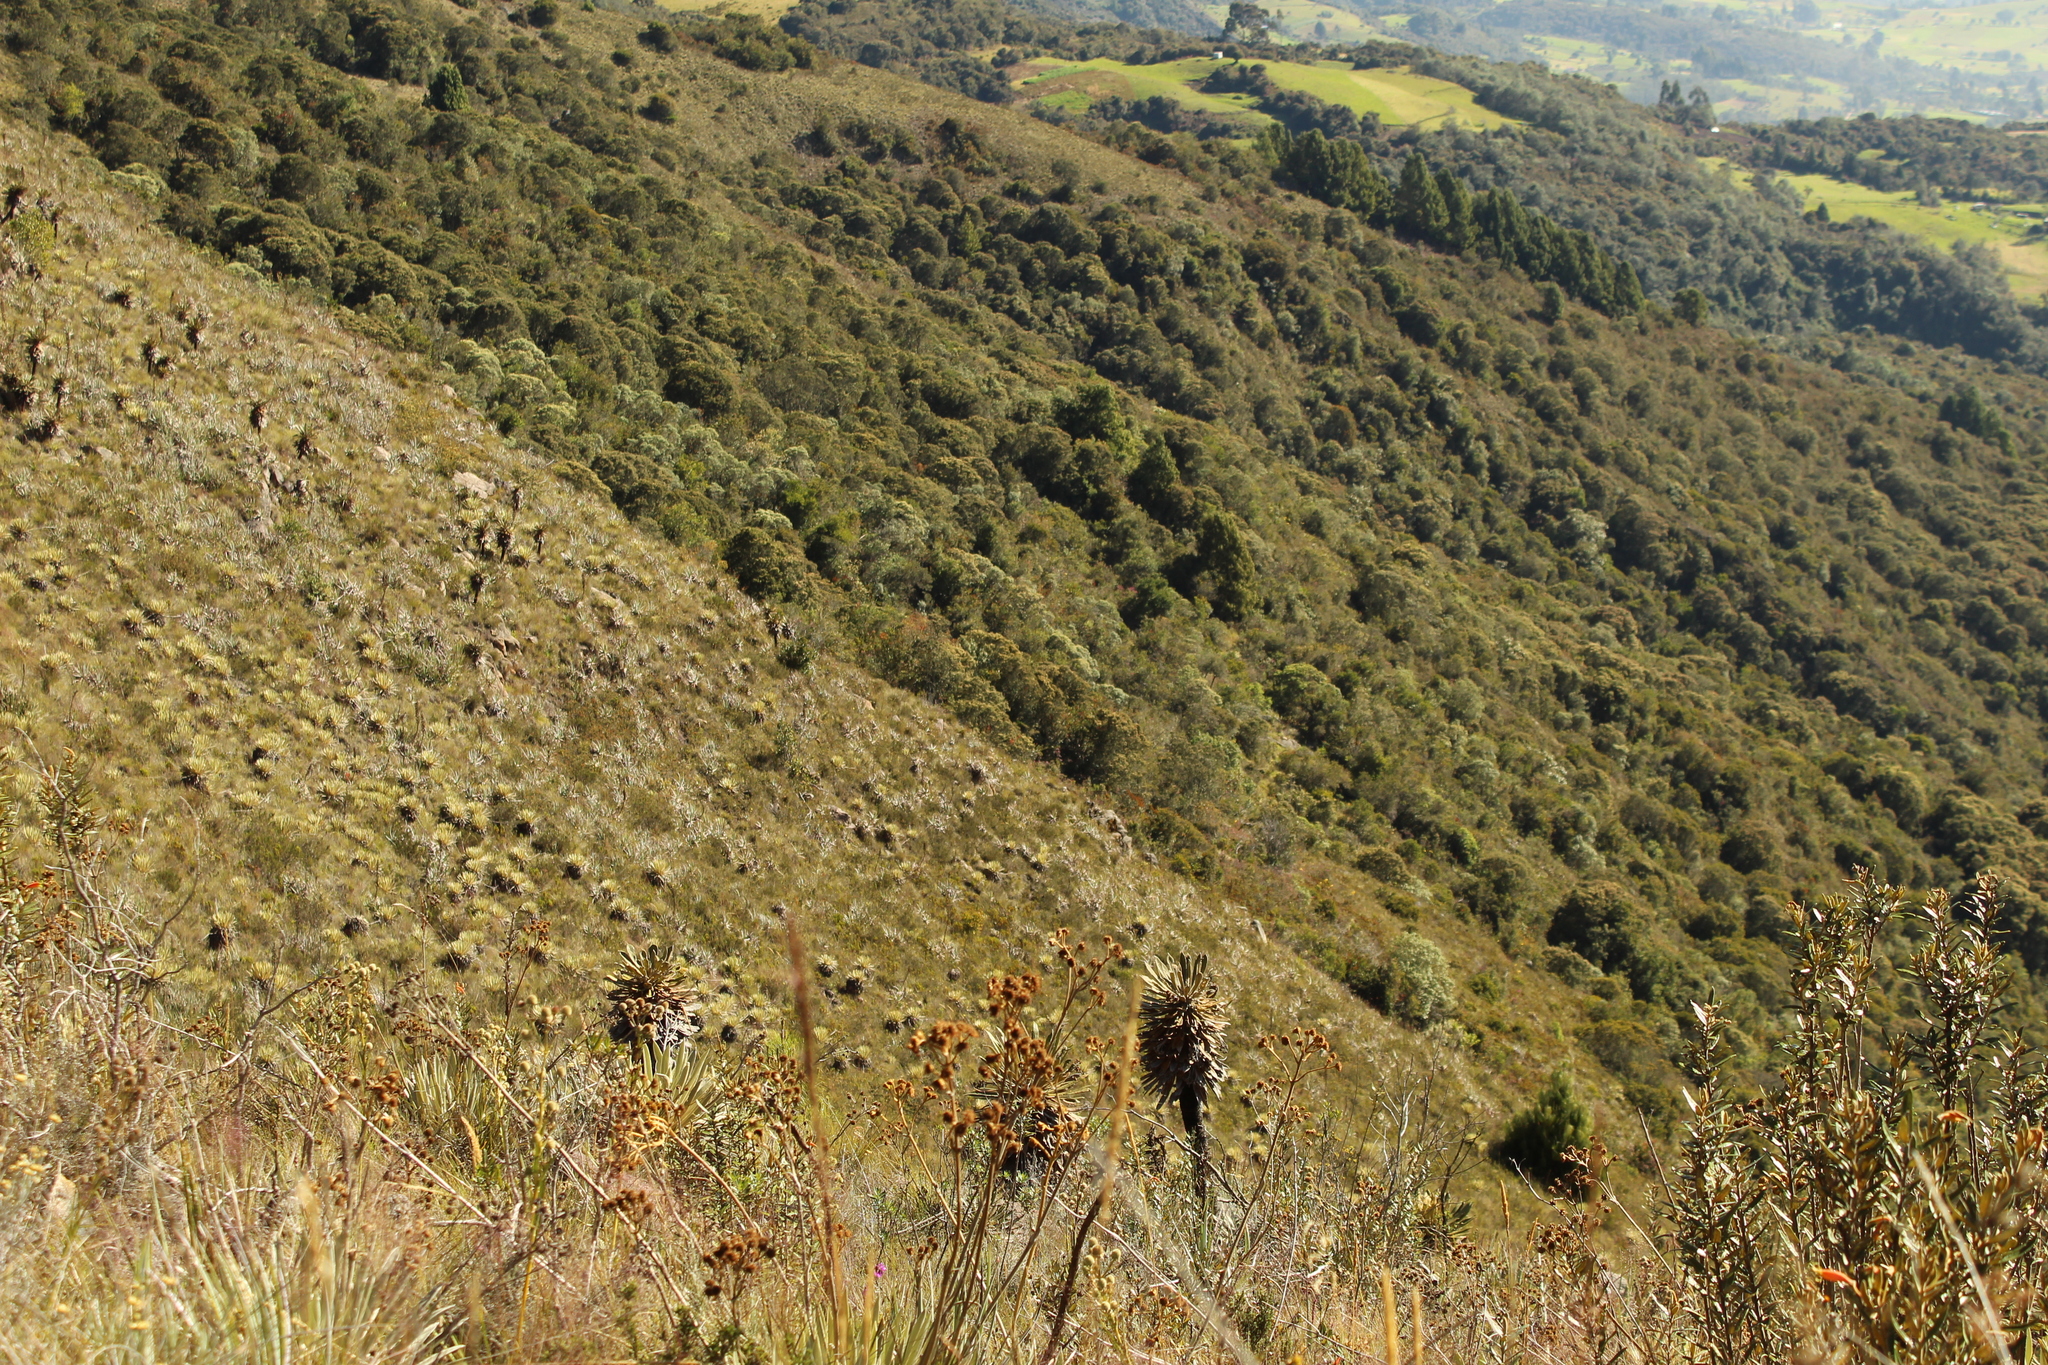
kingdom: Plantae
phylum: Tracheophyta
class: Magnoliopsida
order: Asterales
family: Asteraceae
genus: Espeletia
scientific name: Espeletia guacharaca
